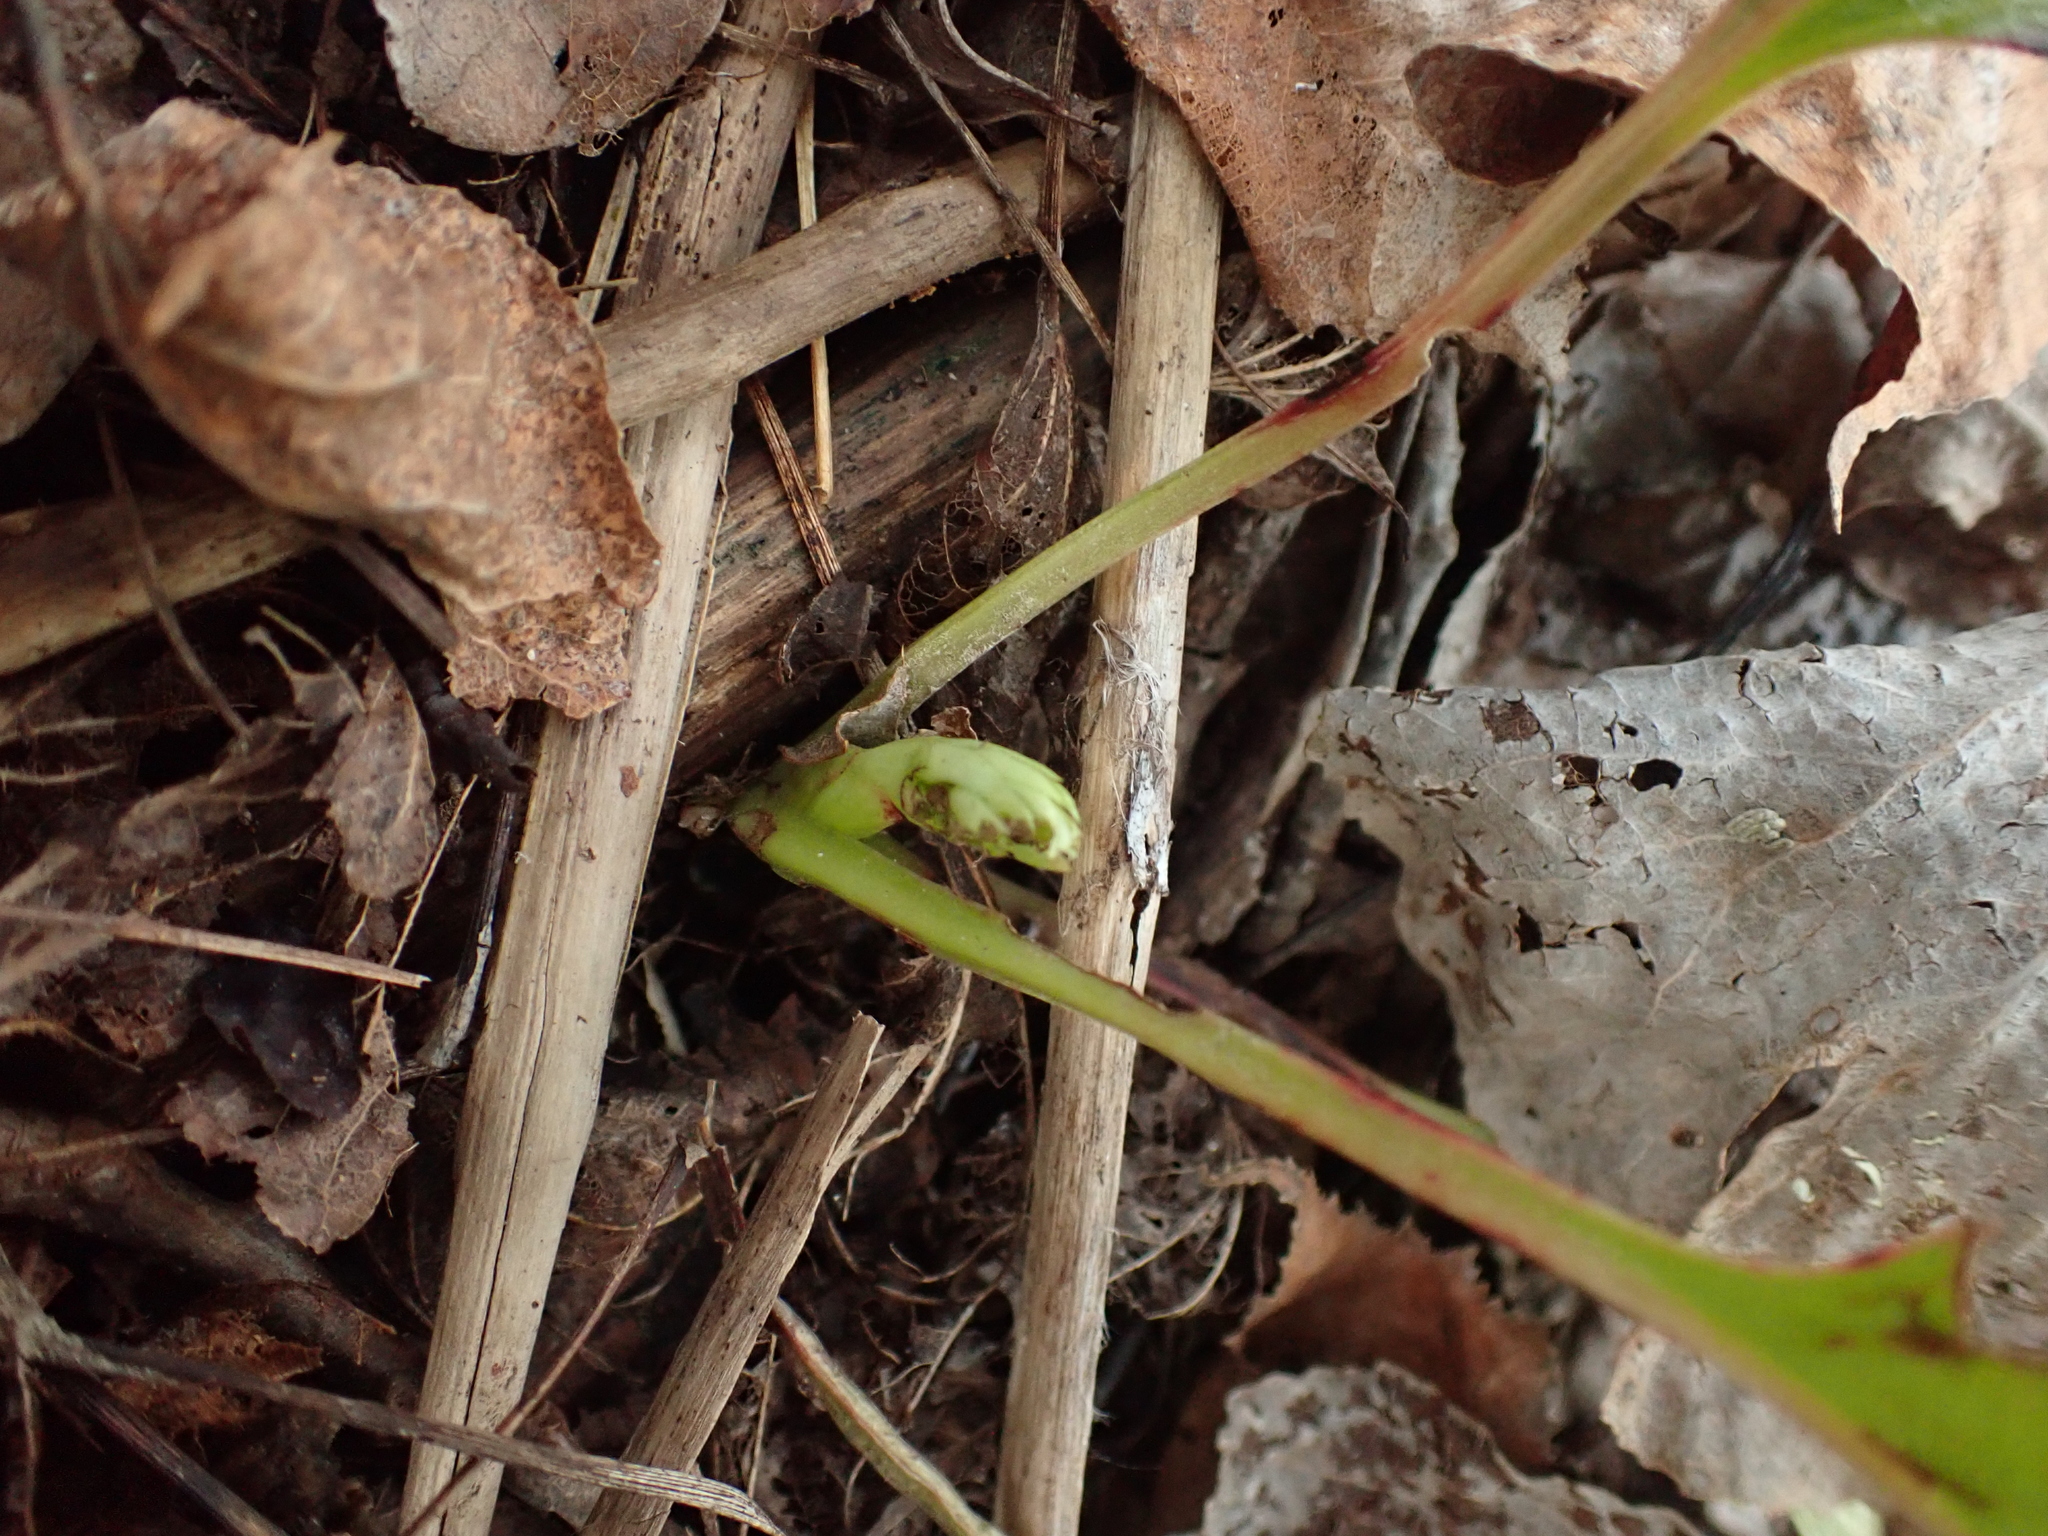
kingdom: Plantae
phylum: Tracheophyta
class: Magnoliopsida
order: Ericales
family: Ericaceae
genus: Pyrola
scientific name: Pyrola americana
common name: American wintergreen
